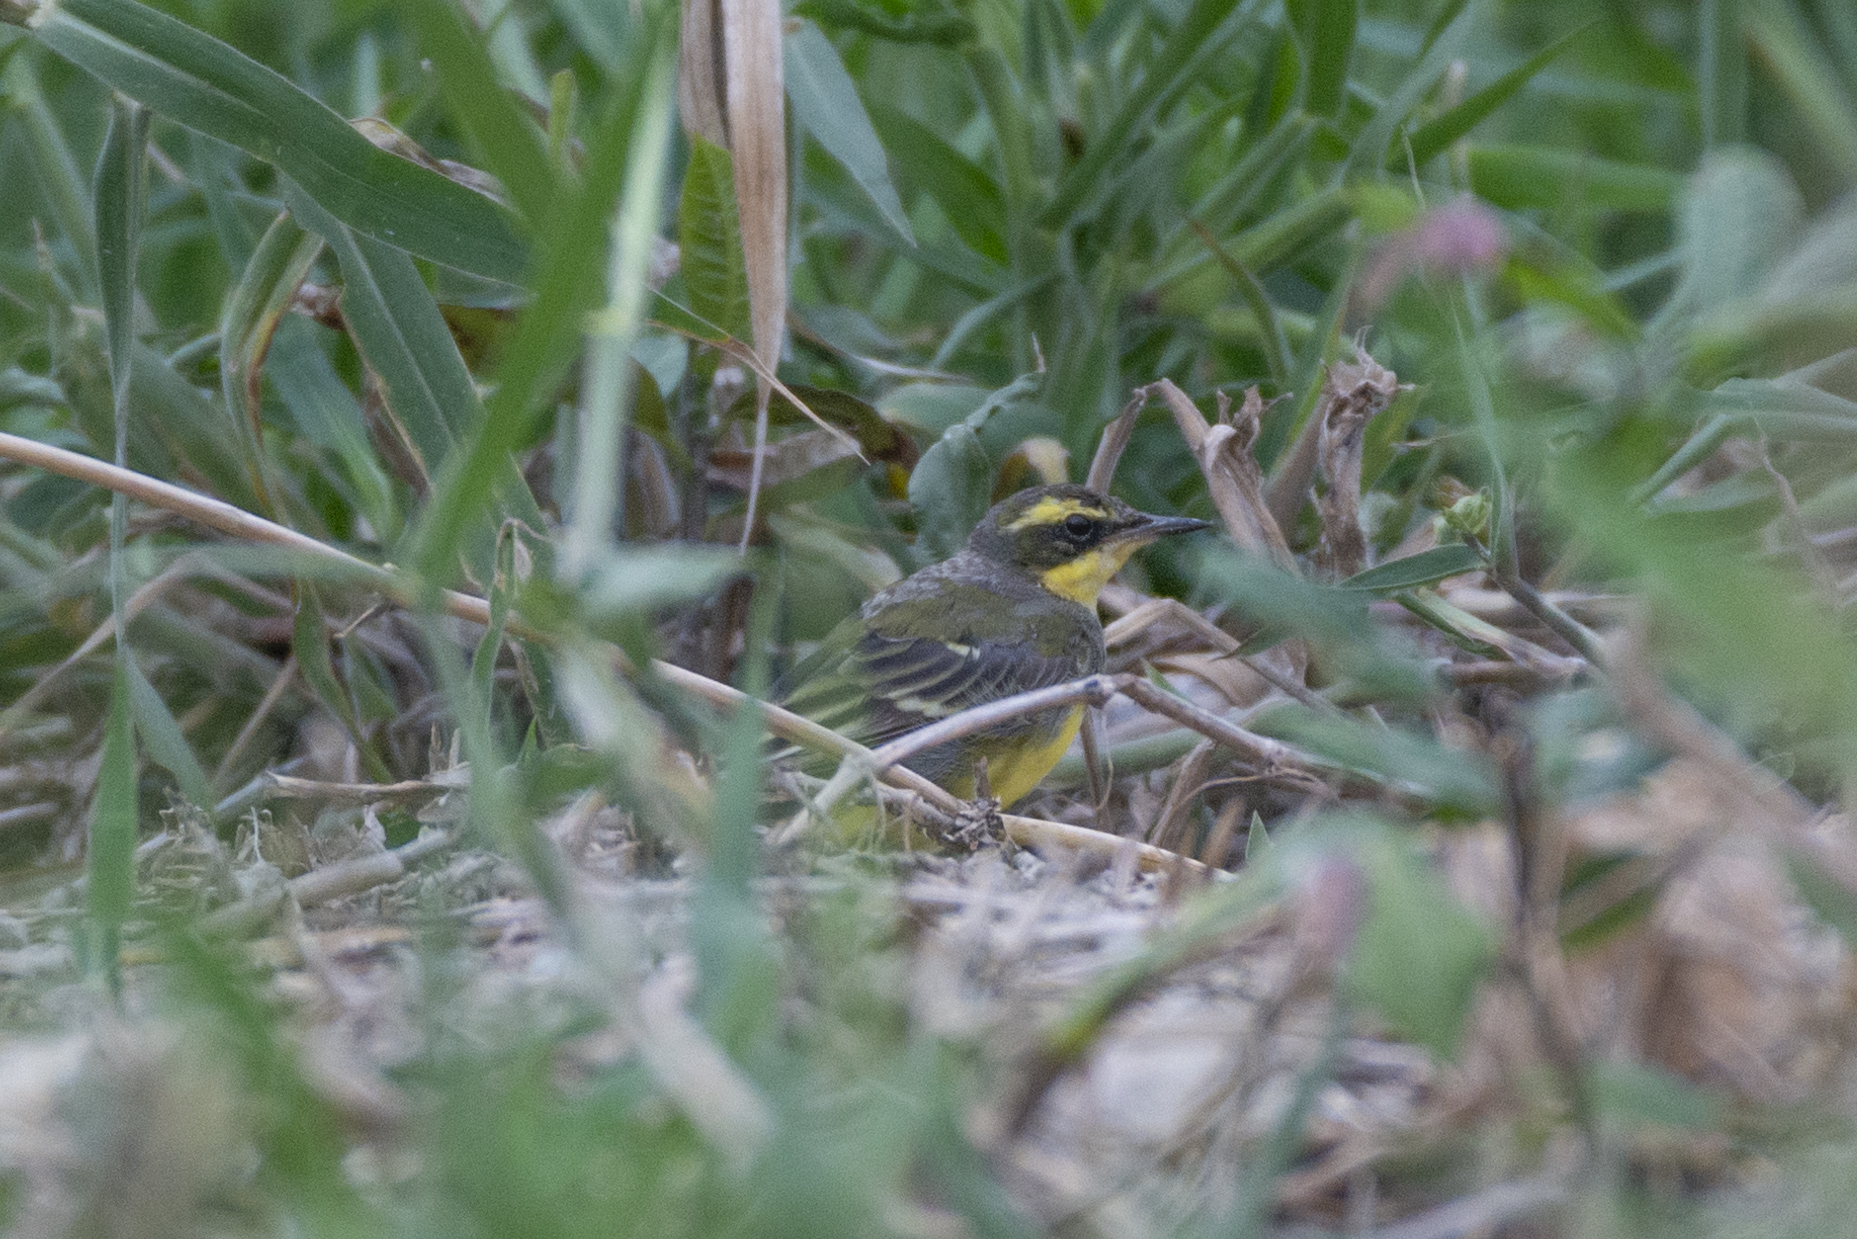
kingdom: Animalia
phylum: Chordata
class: Aves
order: Passeriformes
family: Motacillidae
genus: Motacilla
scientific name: Motacilla tschutschensis
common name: Eastern yellow wagtail
